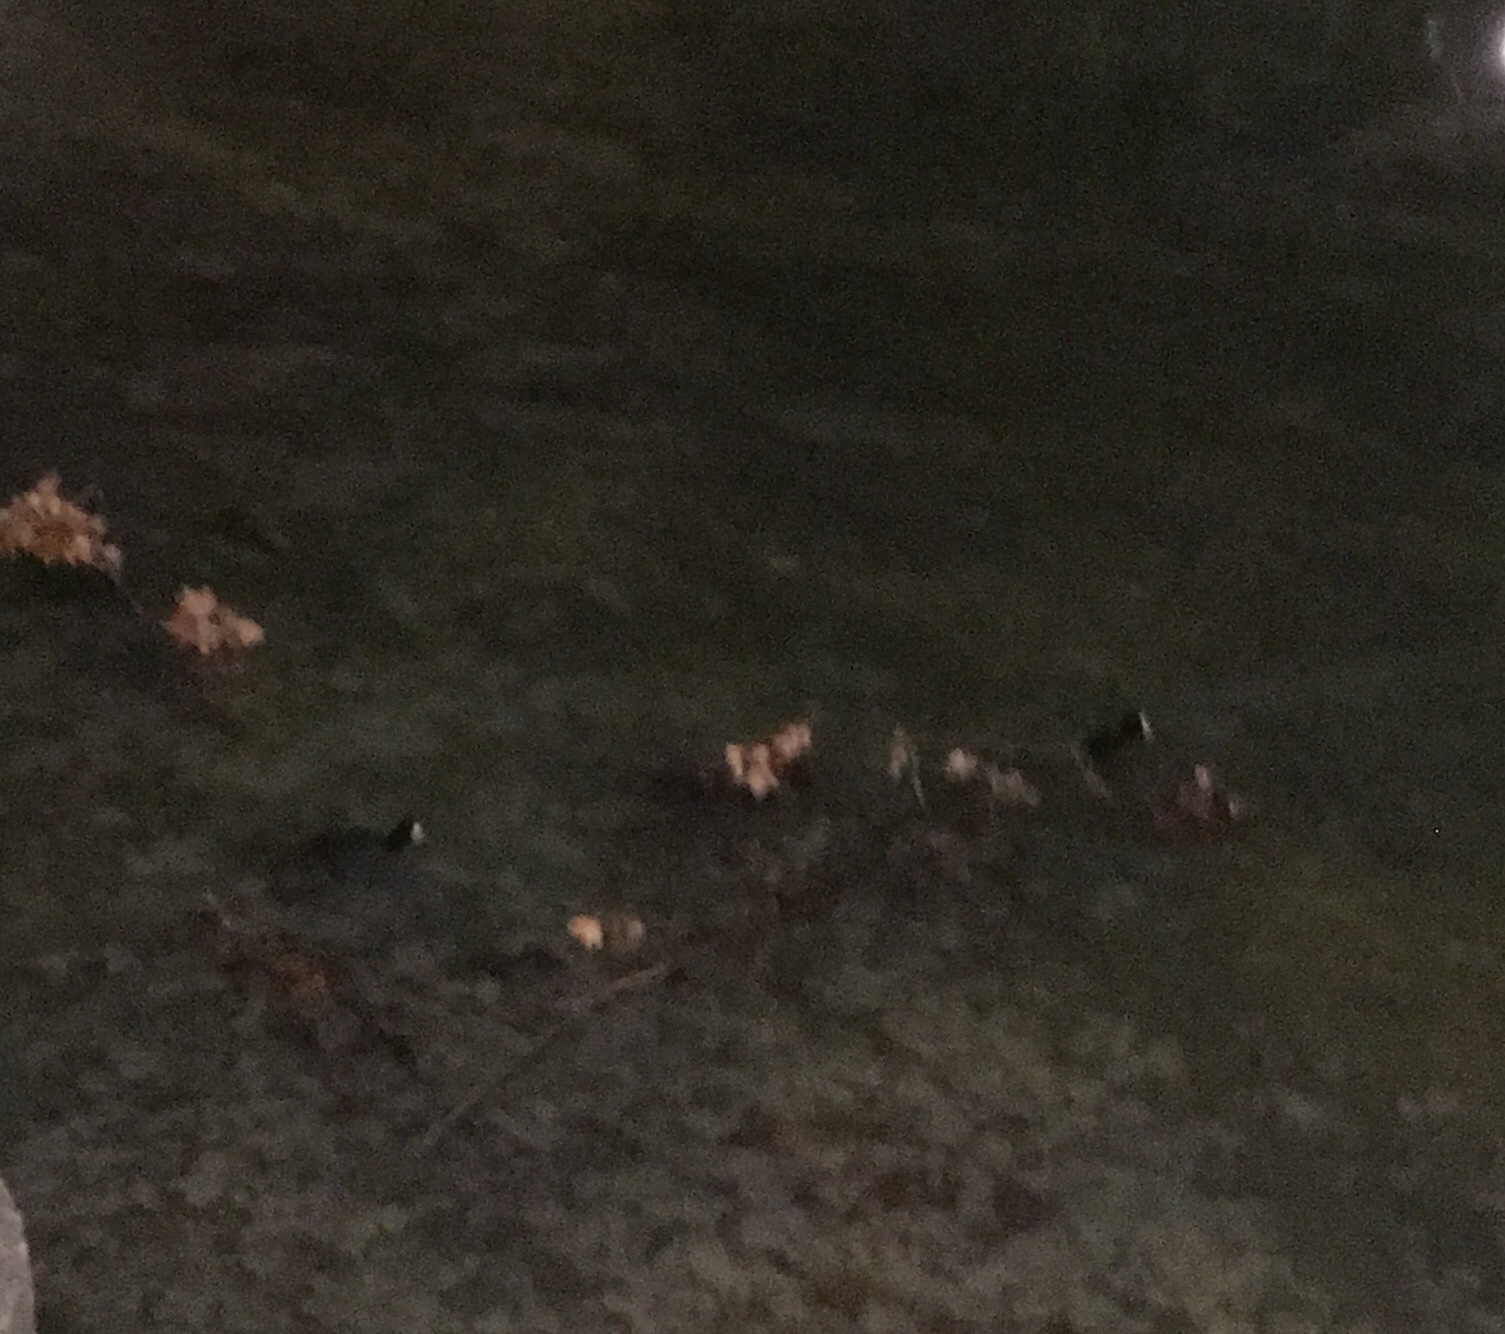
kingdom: Animalia
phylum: Chordata
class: Aves
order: Gruiformes
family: Rallidae
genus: Fulica
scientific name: Fulica atra
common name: Eurasian coot
